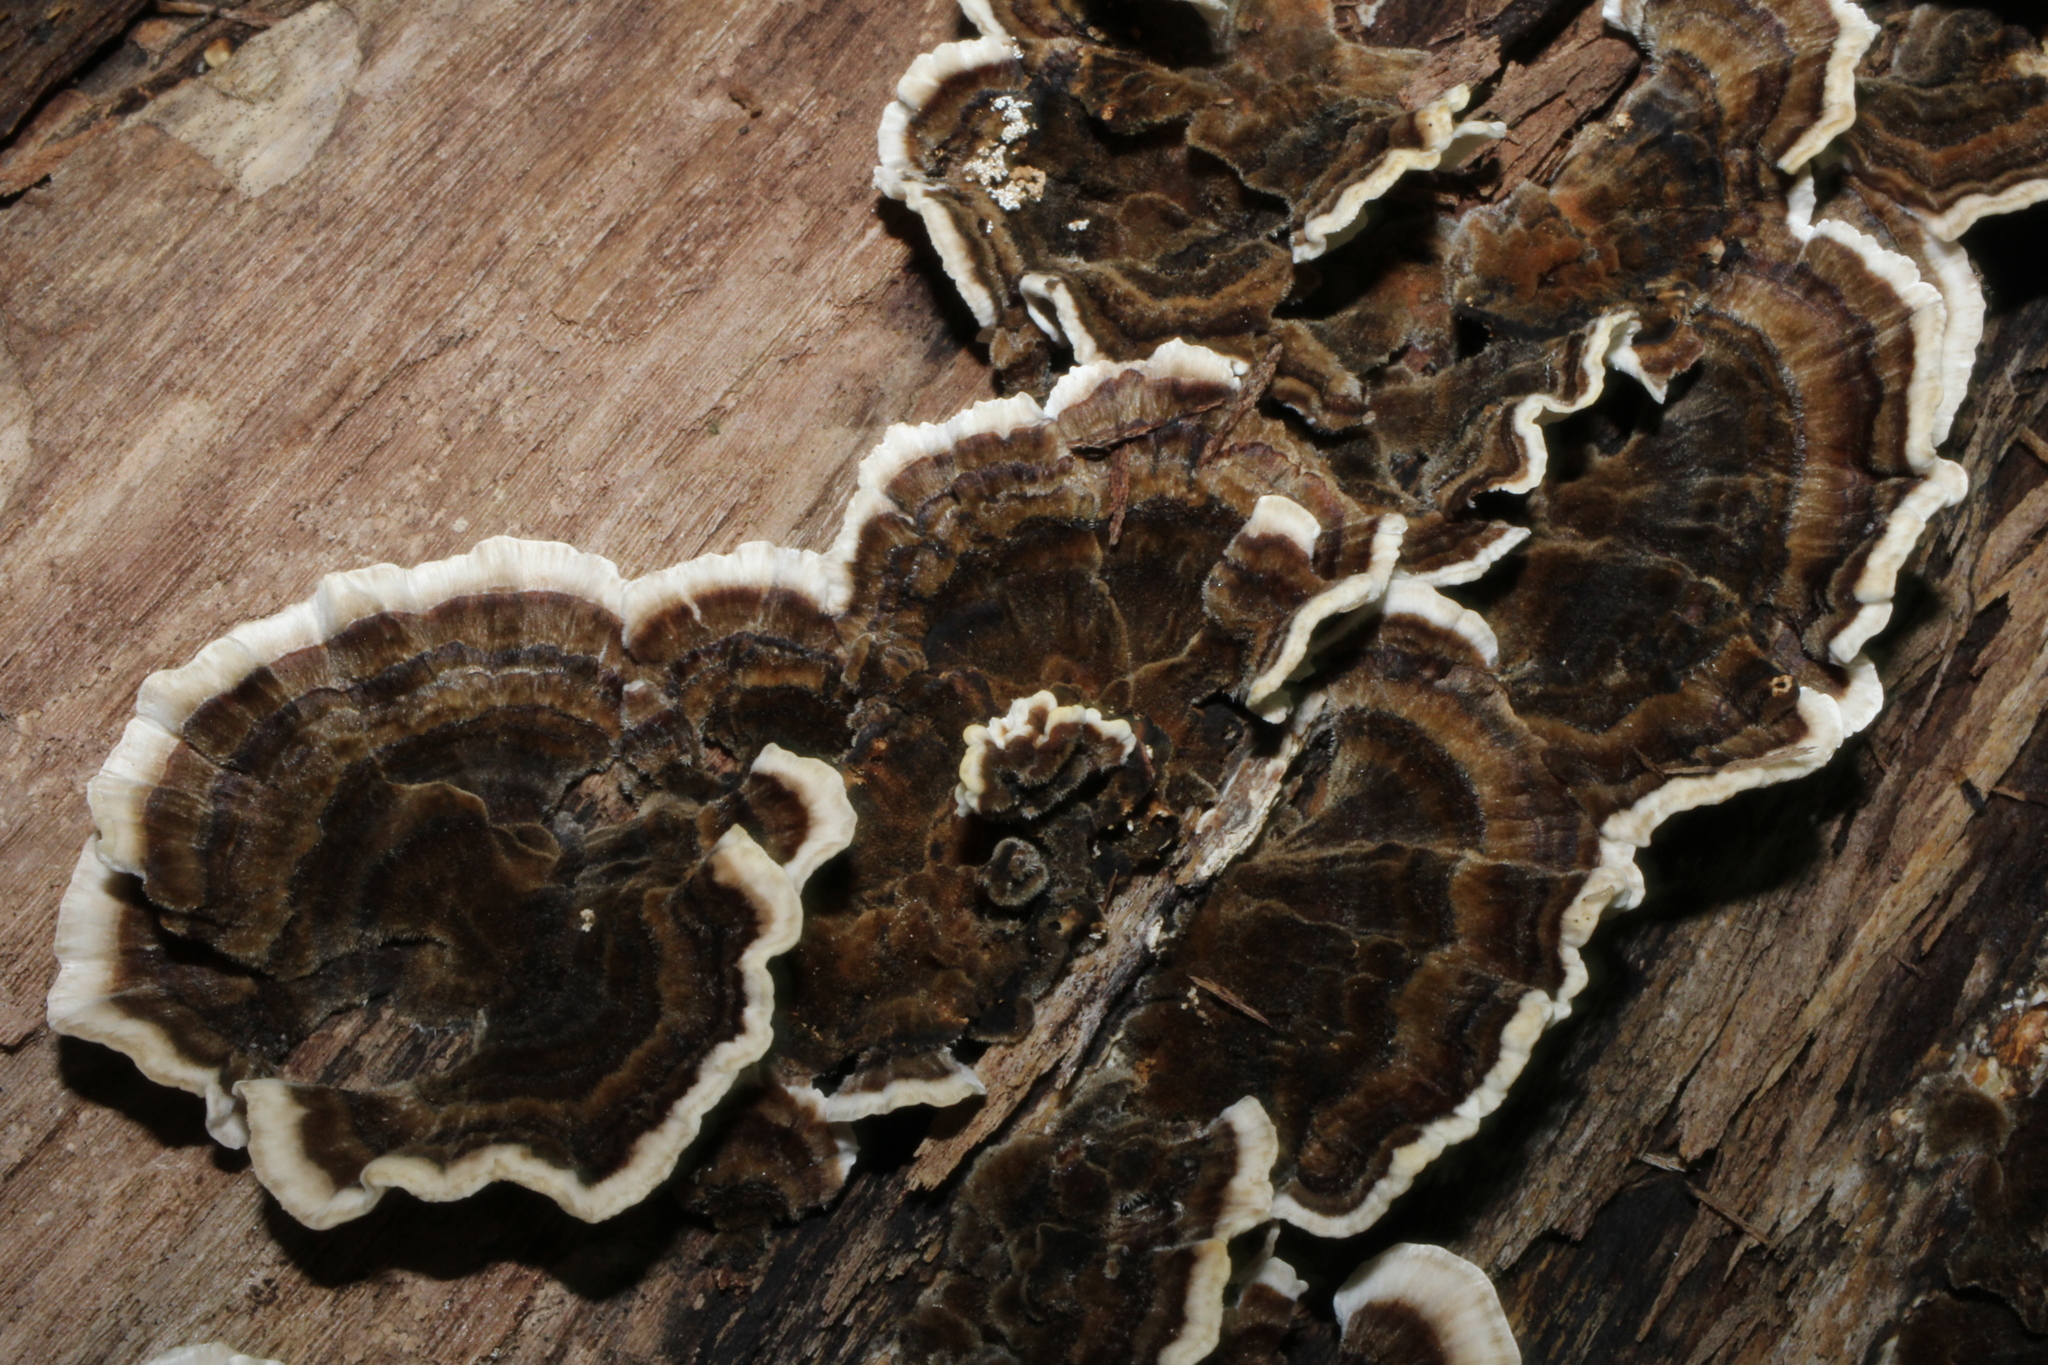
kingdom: Fungi
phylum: Basidiomycota
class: Agaricomycetes
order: Polyporales
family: Polyporaceae
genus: Trametes
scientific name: Trametes versicolor
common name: Turkeytail
